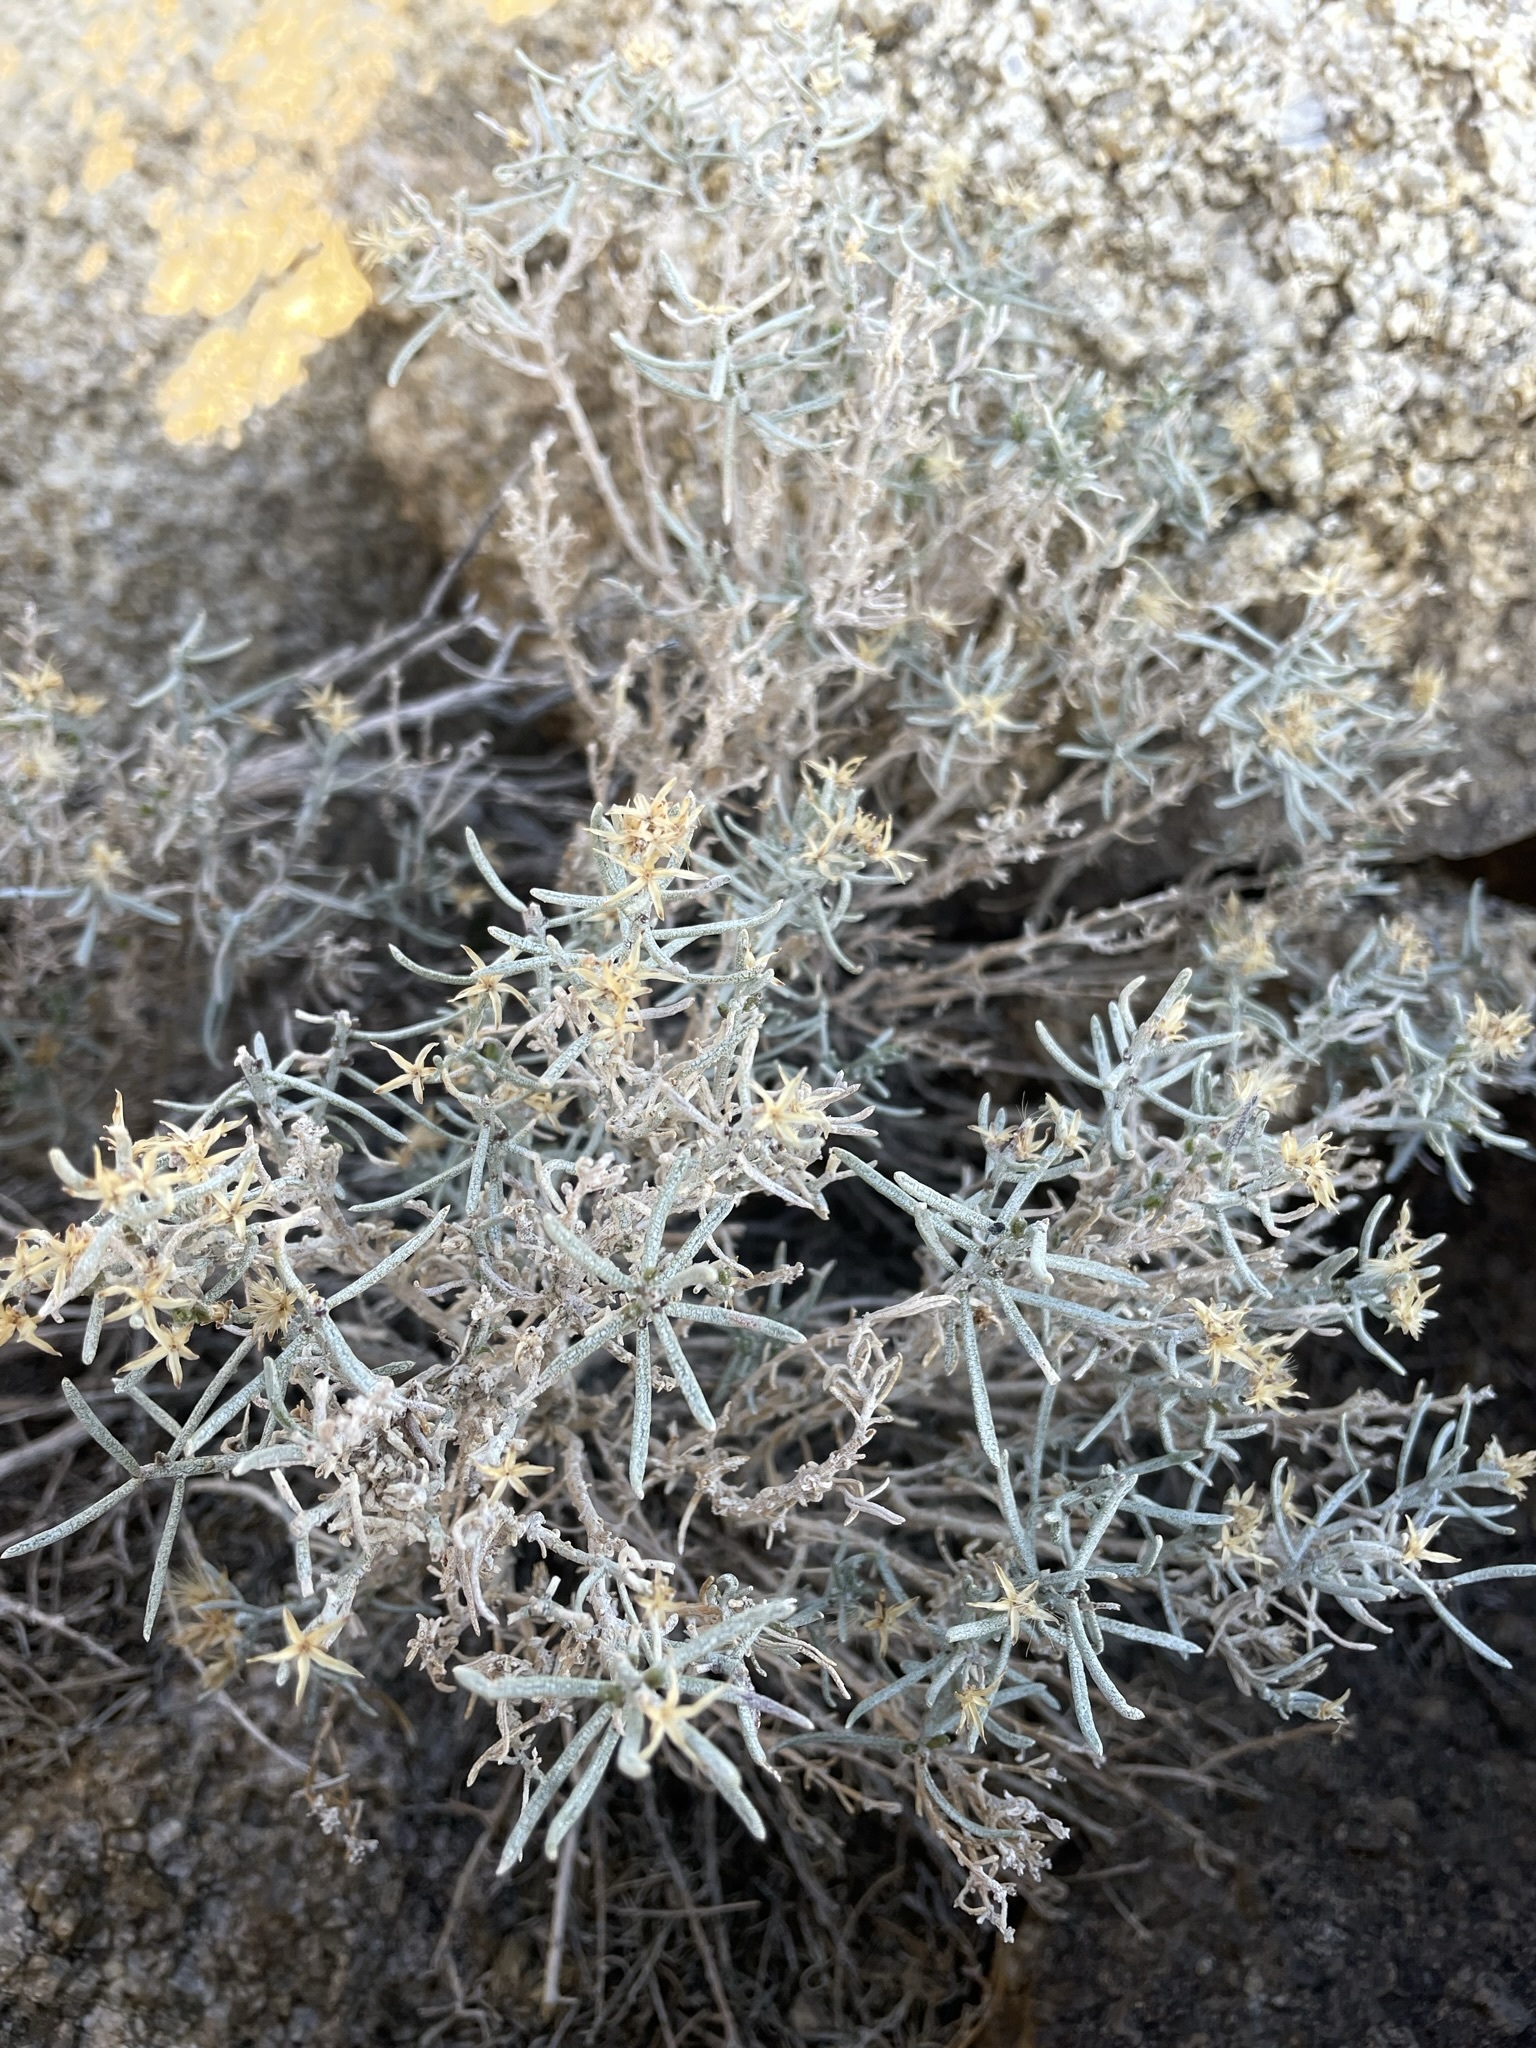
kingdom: Plantae
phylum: Tracheophyta
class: Magnoliopsida
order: Asterales
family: Asteraceae
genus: Ericameria
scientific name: Ericameria teretifolia
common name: Round-leaf rabbitbrush
